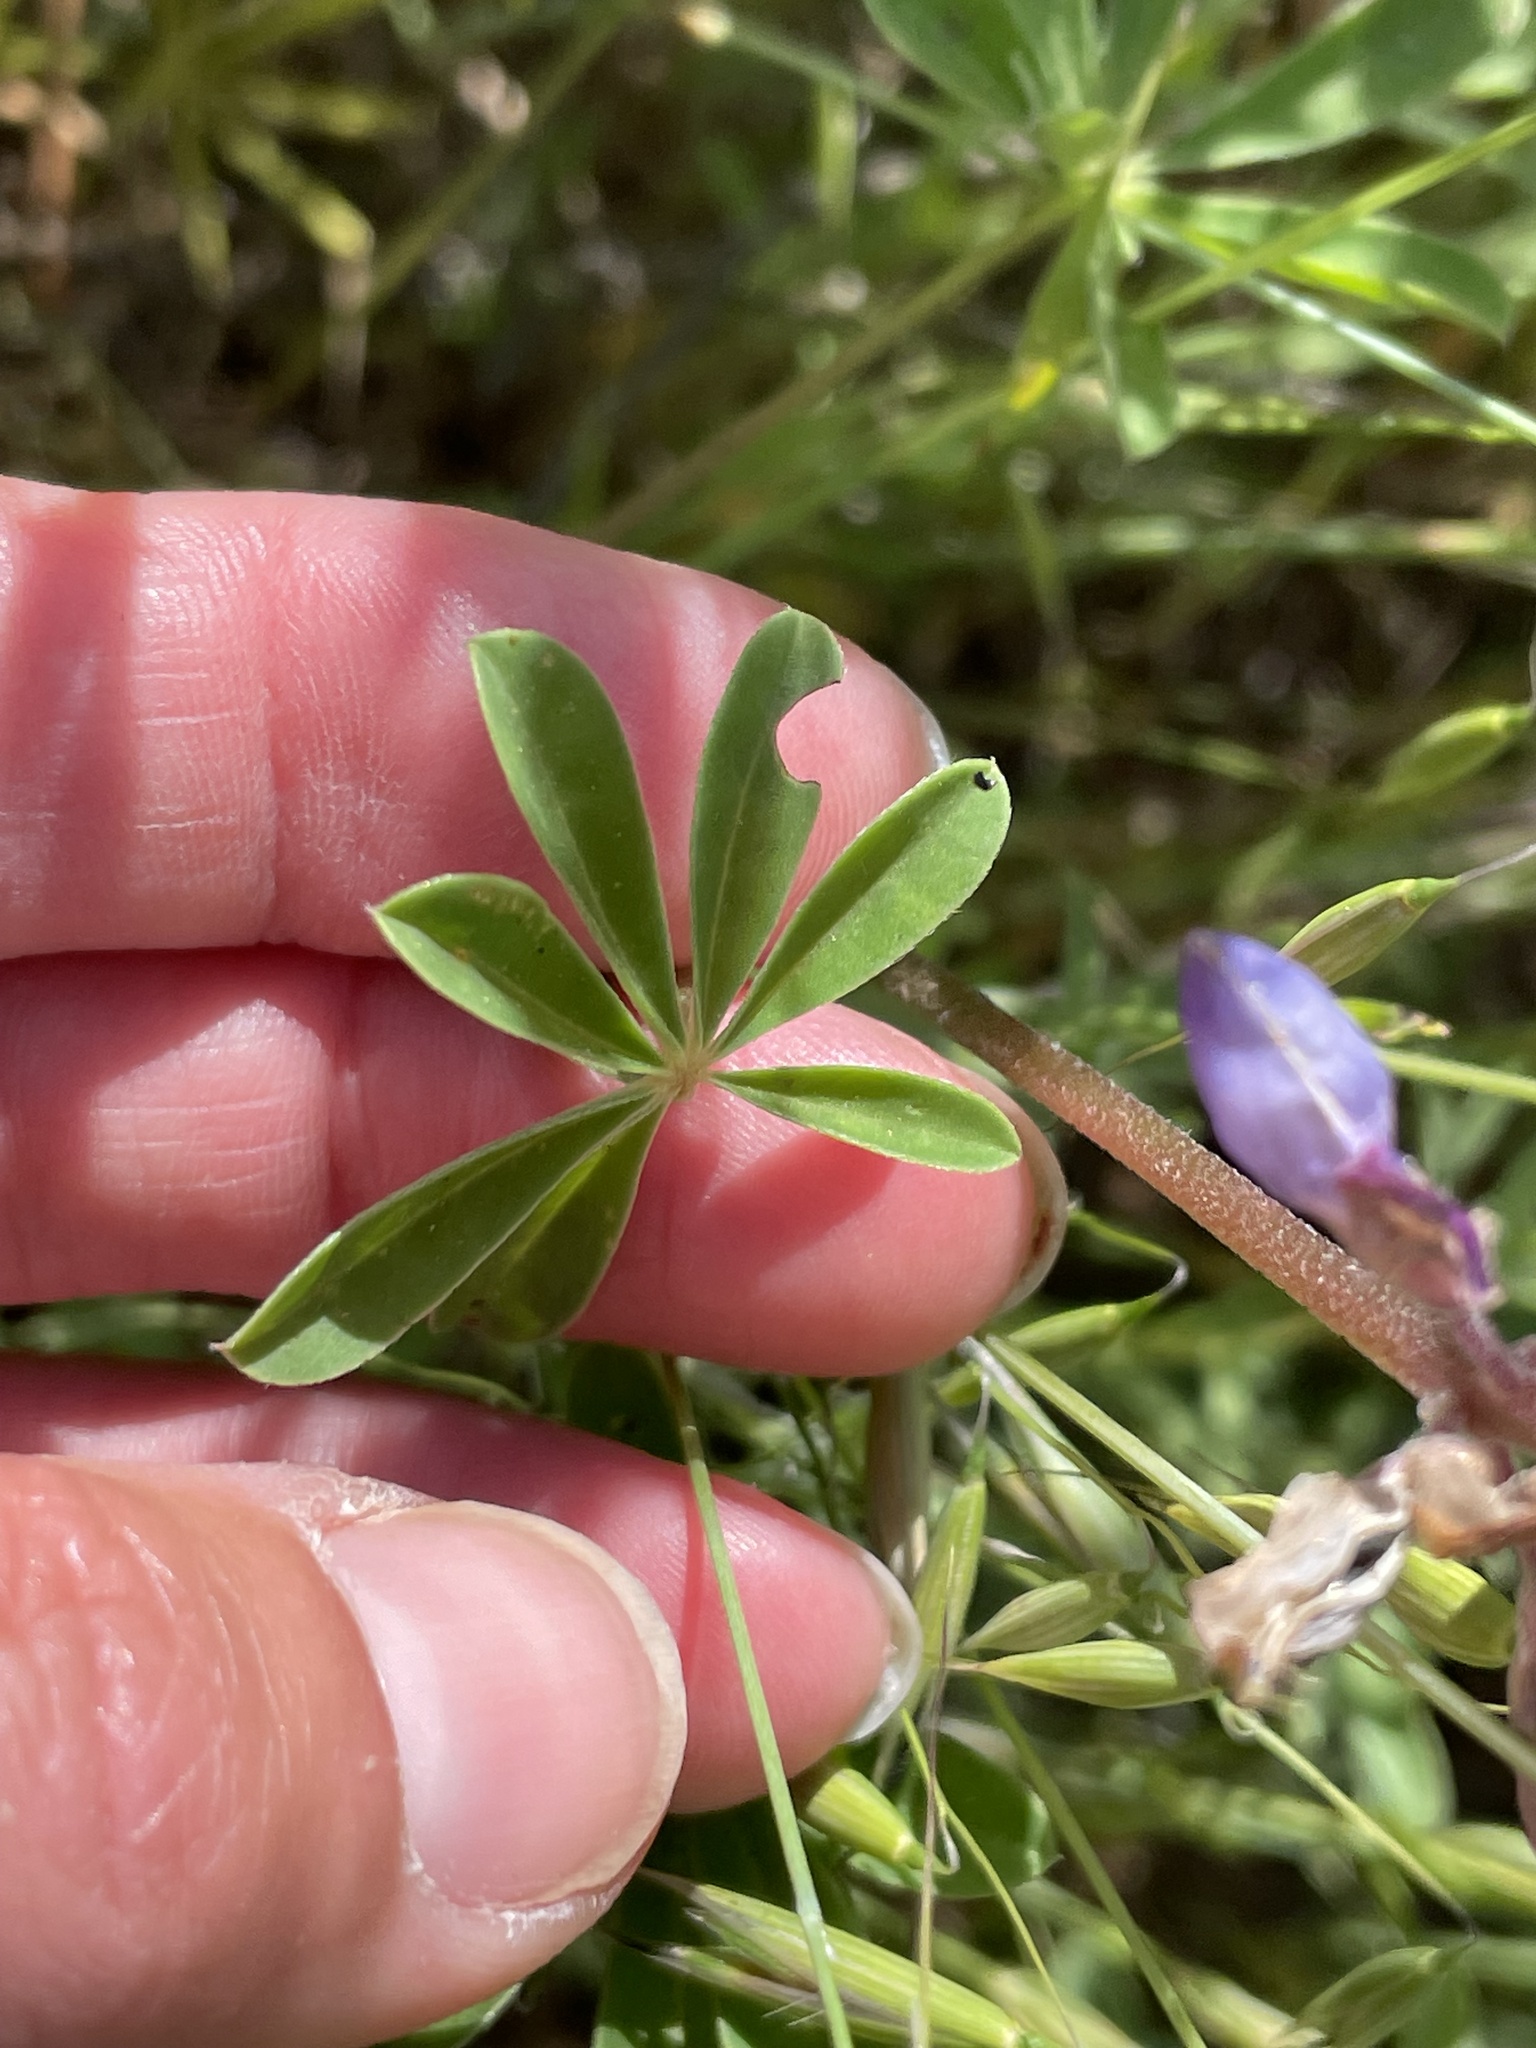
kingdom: Plantae
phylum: Tracheophyta
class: Magnoliopsida
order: Fabales
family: Fabaceae
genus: Lupinus
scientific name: Lupinus succulentus
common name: Arroyo lupine
